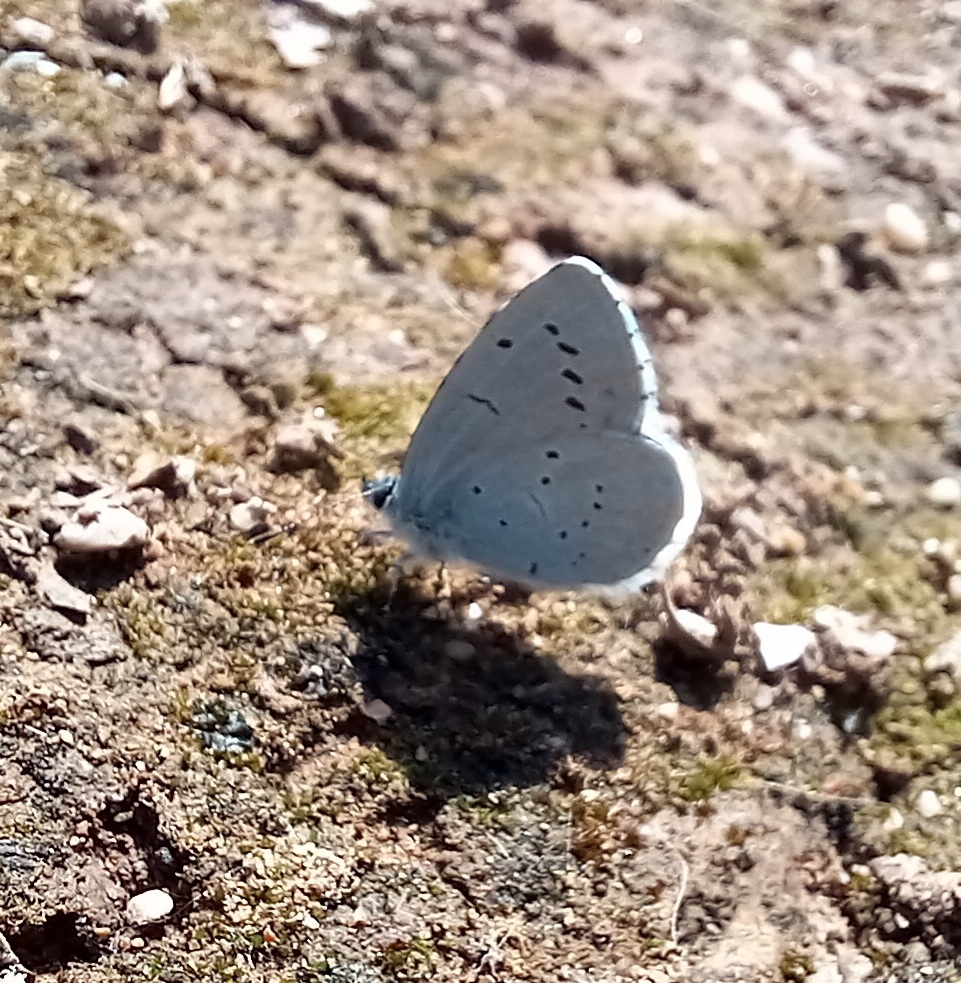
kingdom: Animalia
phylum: Arthropoda
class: Insecta
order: Lepidoptera
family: Lycaenidae
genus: Celastrina
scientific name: Celastrina argiolus
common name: Holly blue
